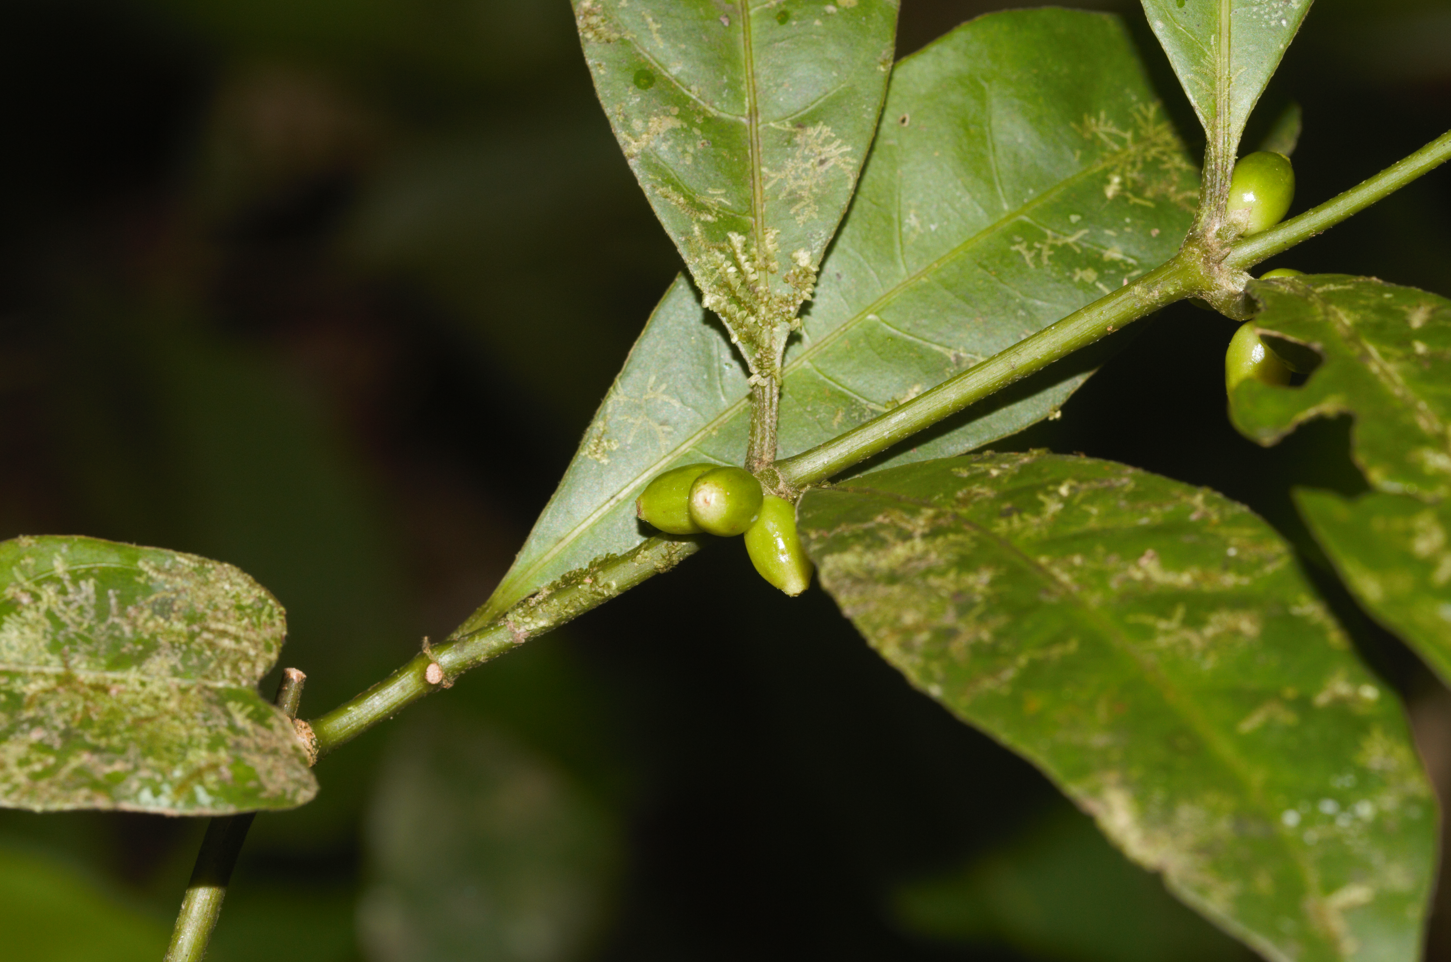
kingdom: Plantae
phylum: Tracheophyta
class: Magnoliopsida
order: Gentianales
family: Rubiaceae
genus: Ronabea
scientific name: Ronabea latifolia
